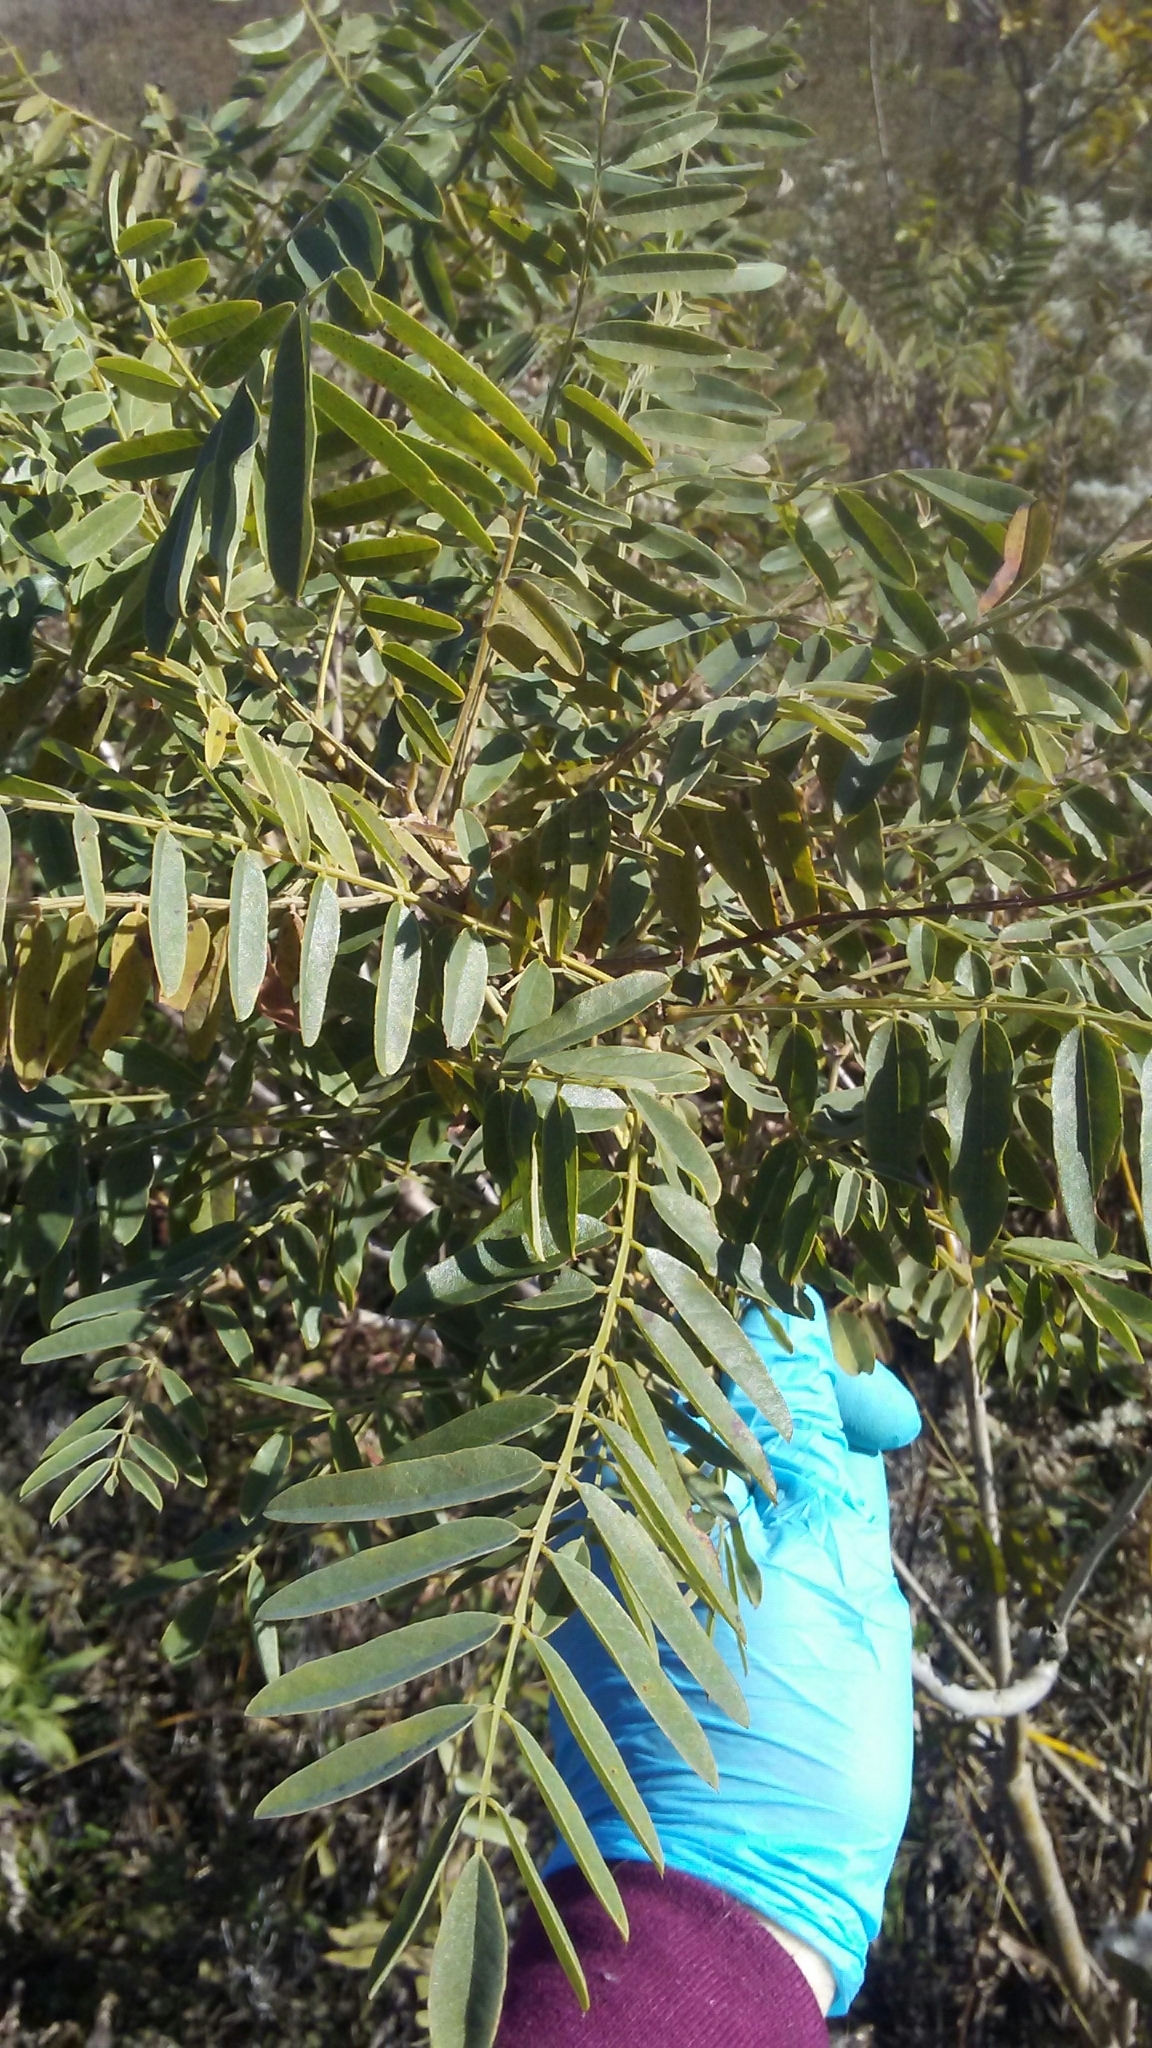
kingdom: Plantae
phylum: Tracheophyta
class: Magnoliopsida
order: Fabales
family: Fabaceae
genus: Amorpha
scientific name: Amorpha fruticosa
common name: False indigo
